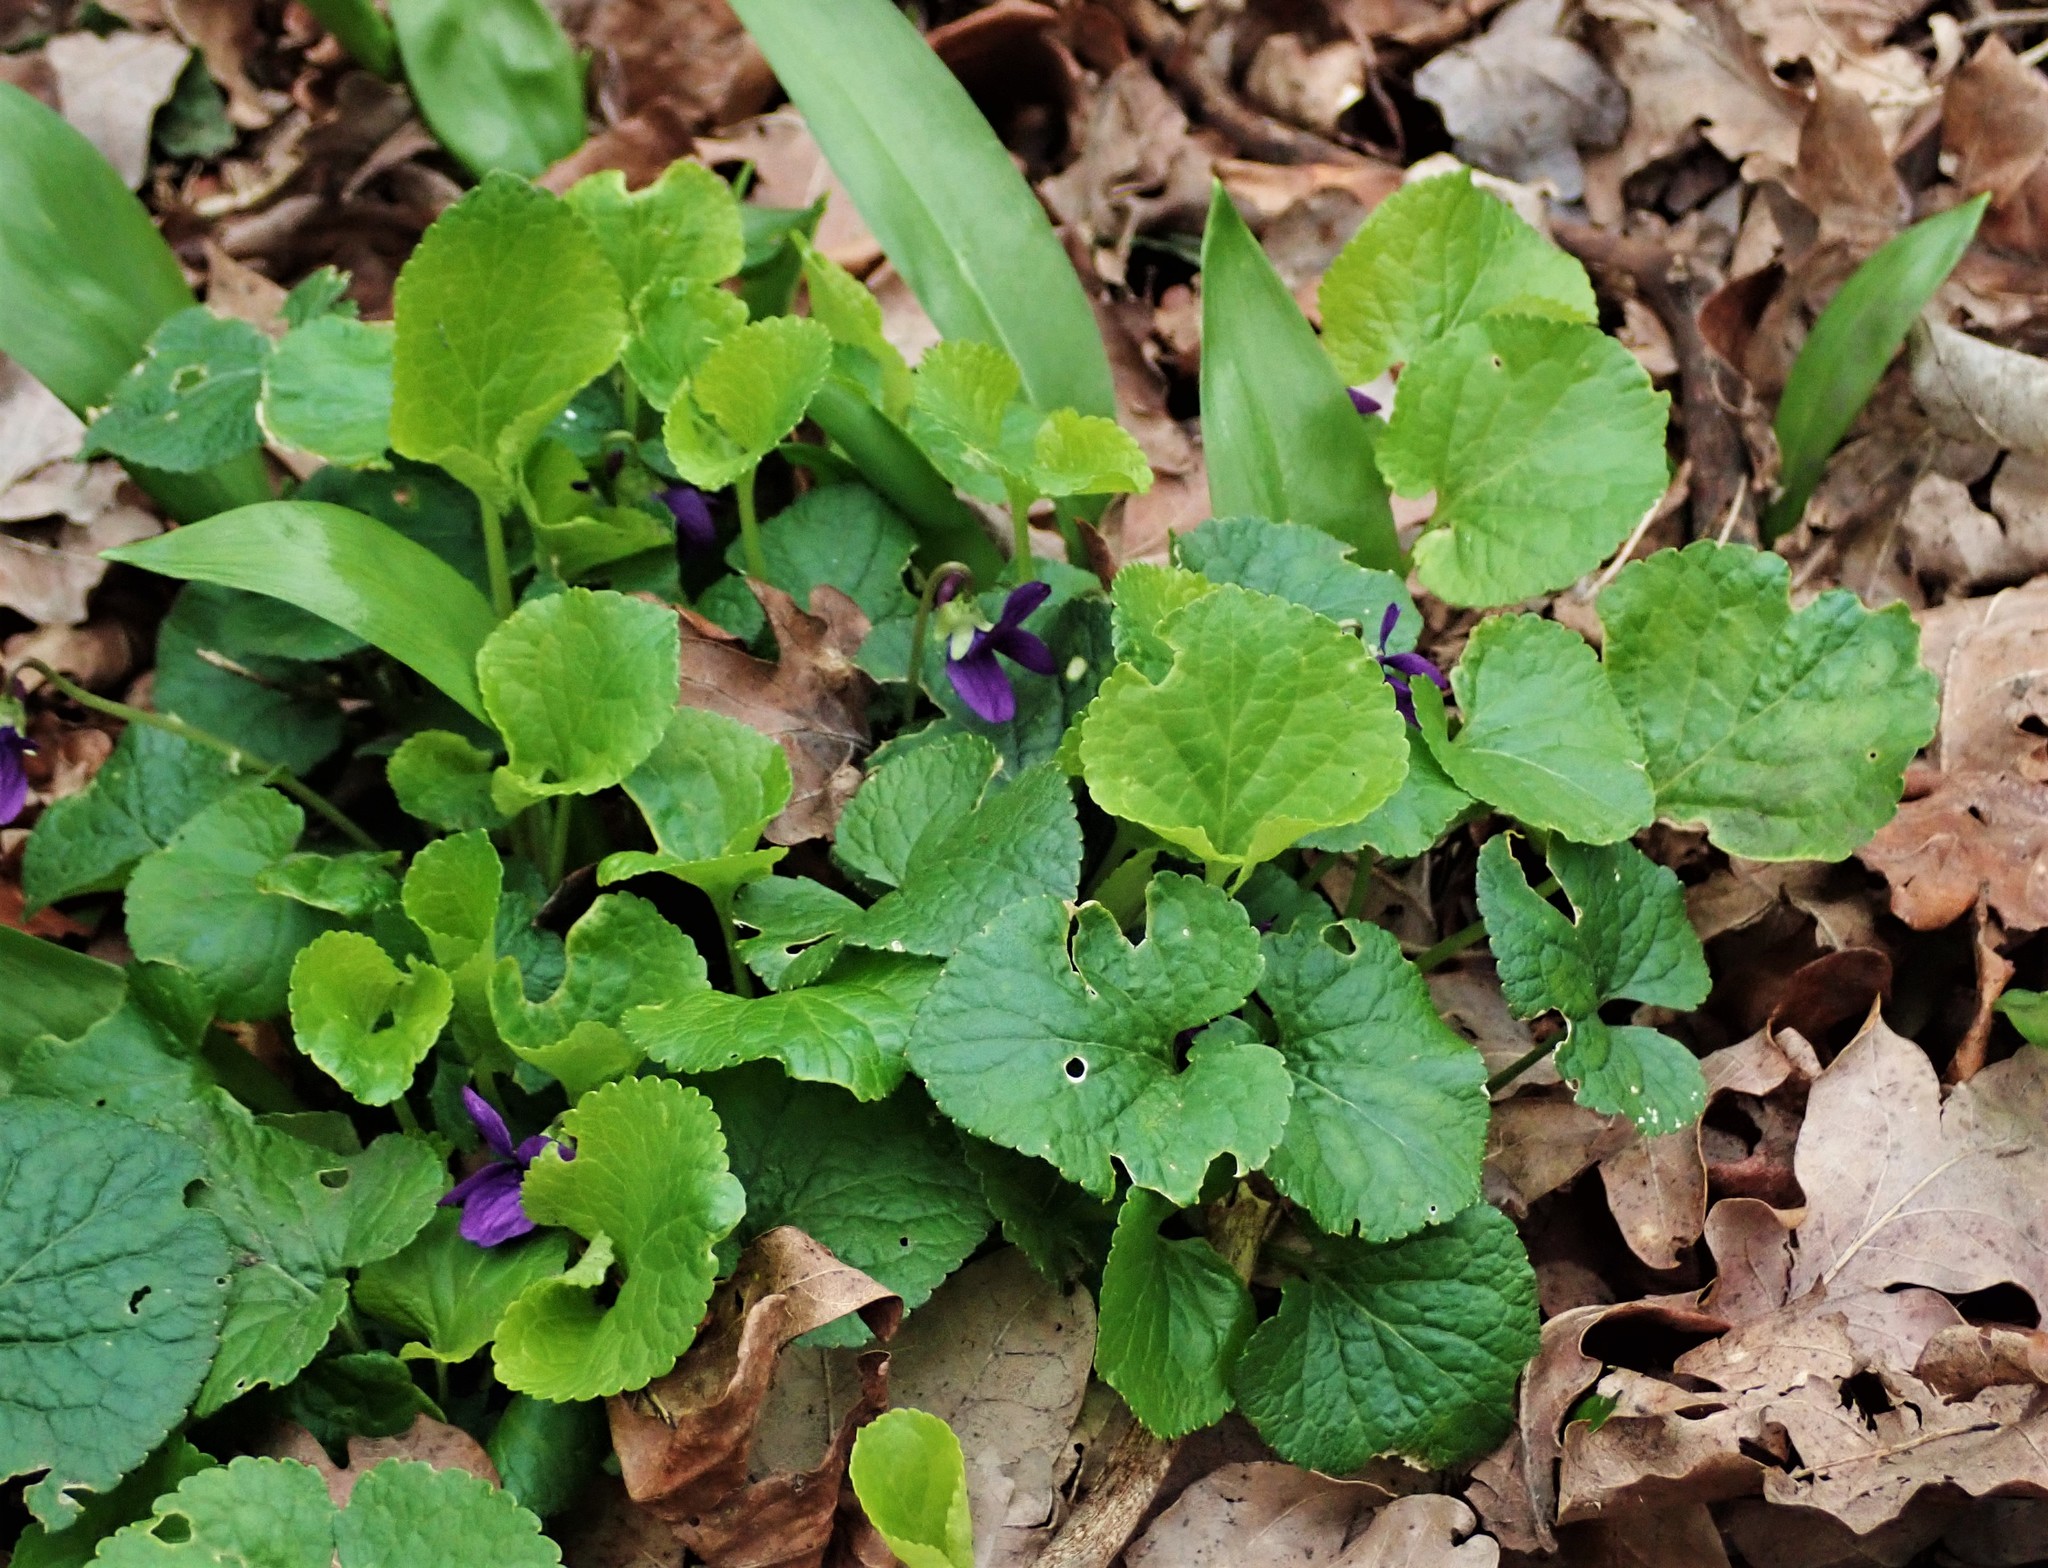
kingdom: Plantae
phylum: Tracheophyta
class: Magnoliopsida
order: Malpighiales
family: Violaceae
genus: Viola
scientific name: Viola odorata
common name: Sweet violet
